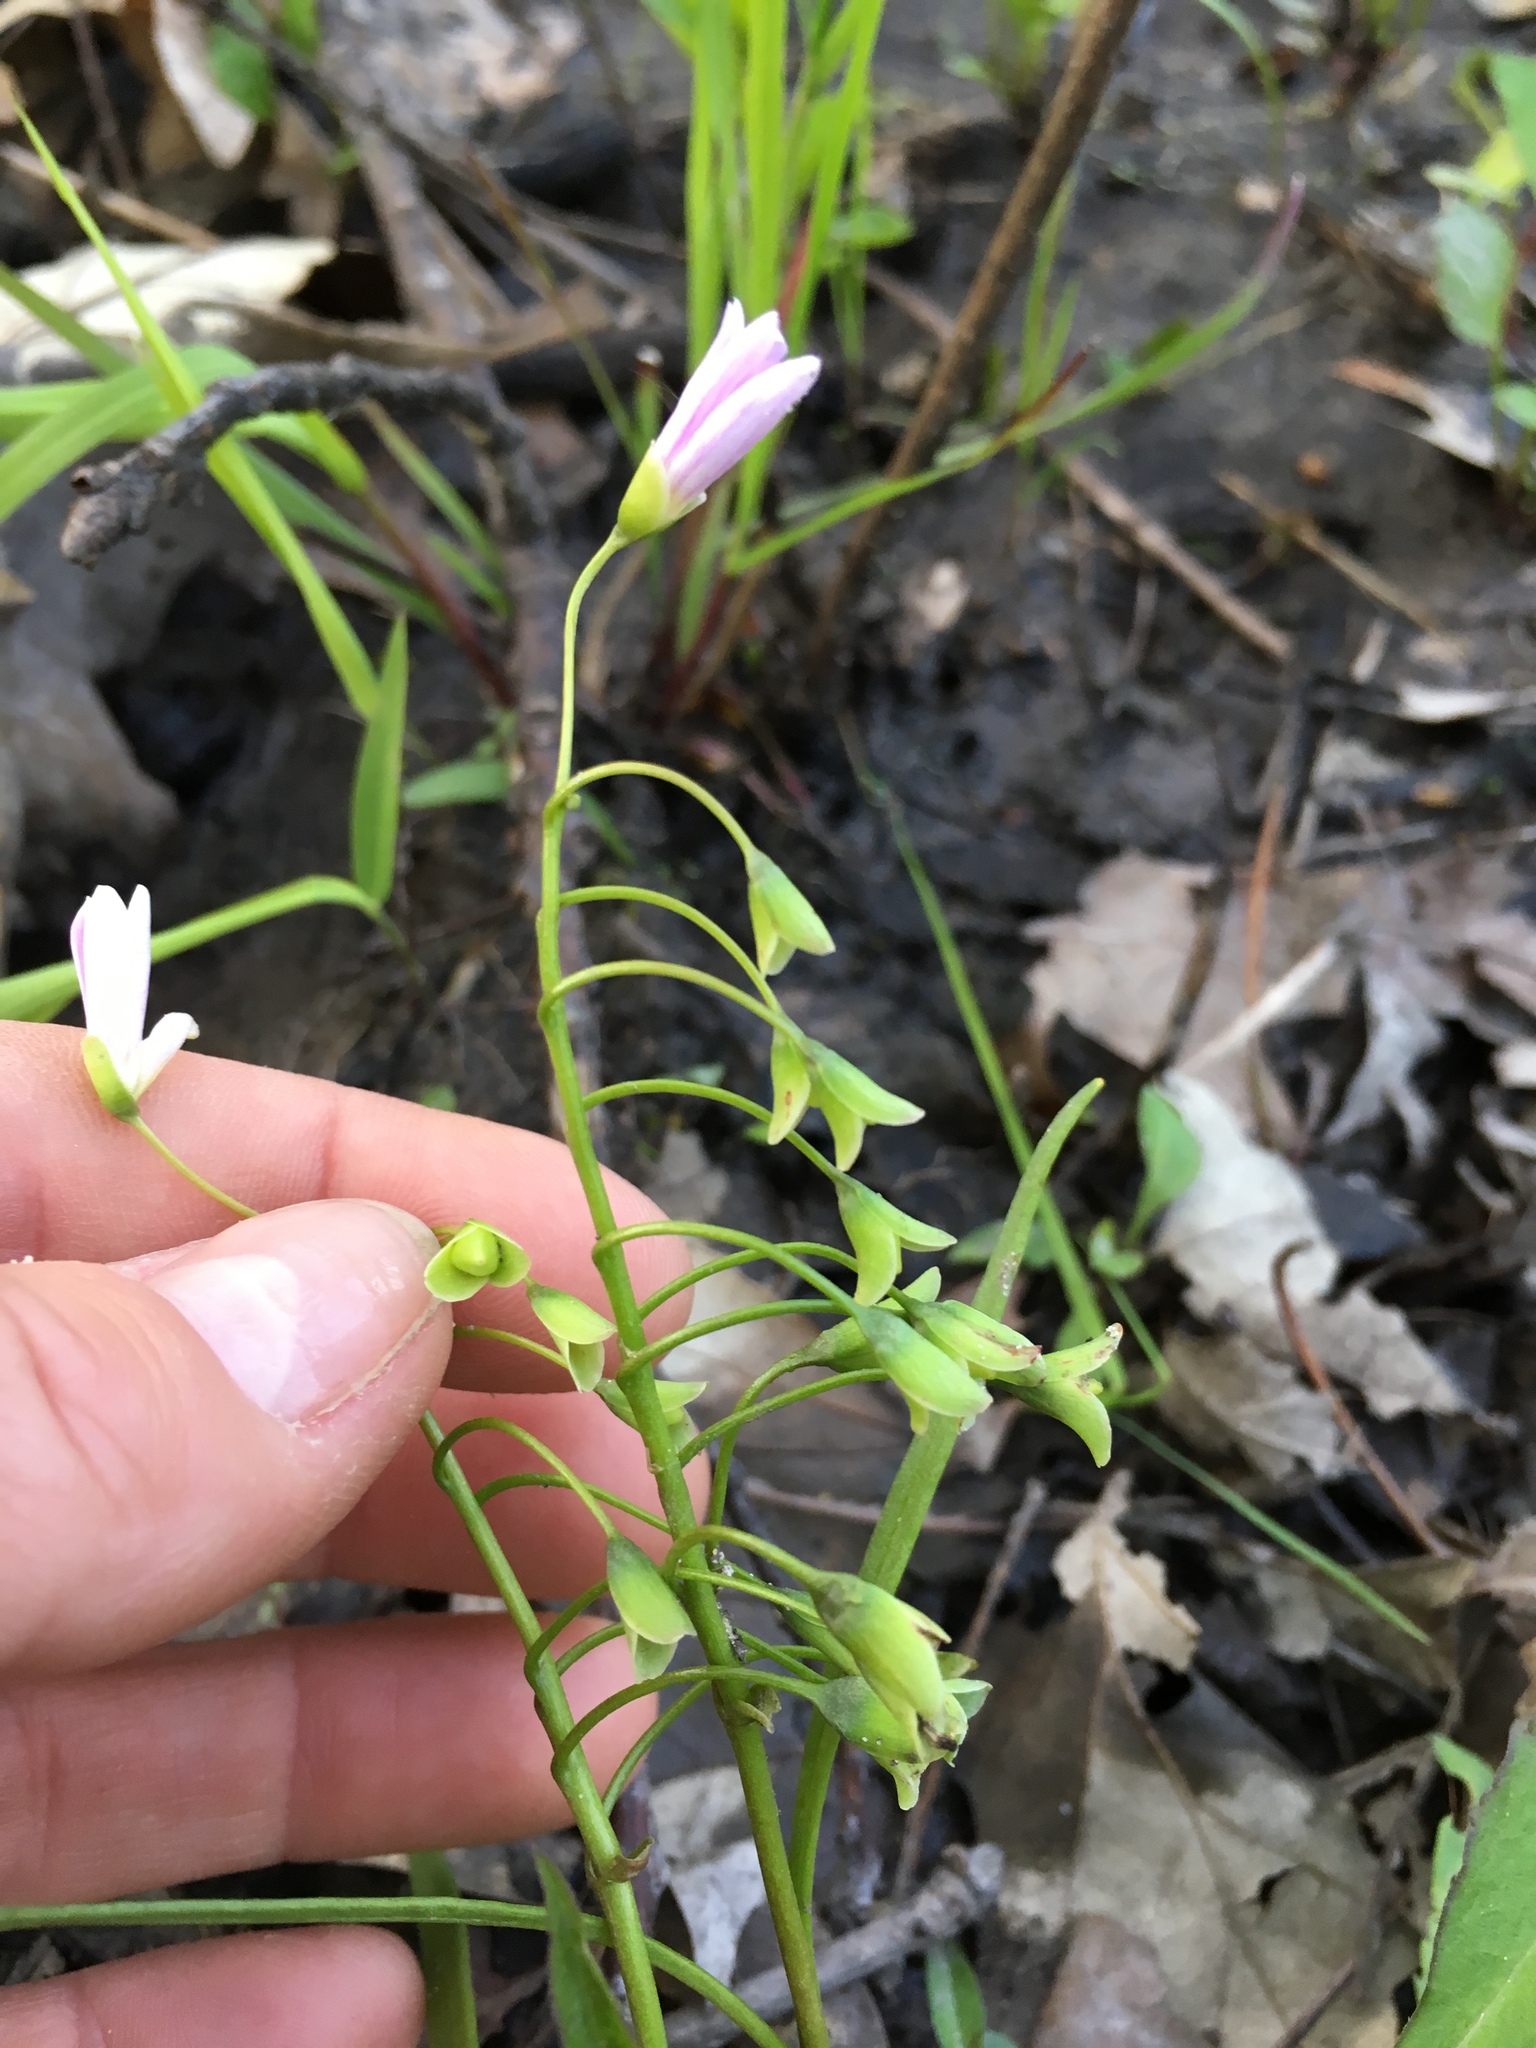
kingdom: Plantae
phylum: Tracheophyta
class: Magnoliopsida
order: Caryophyllales
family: Montiaceae
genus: Claytonia
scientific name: Claytonia virginica
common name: Virginia springbeauty
